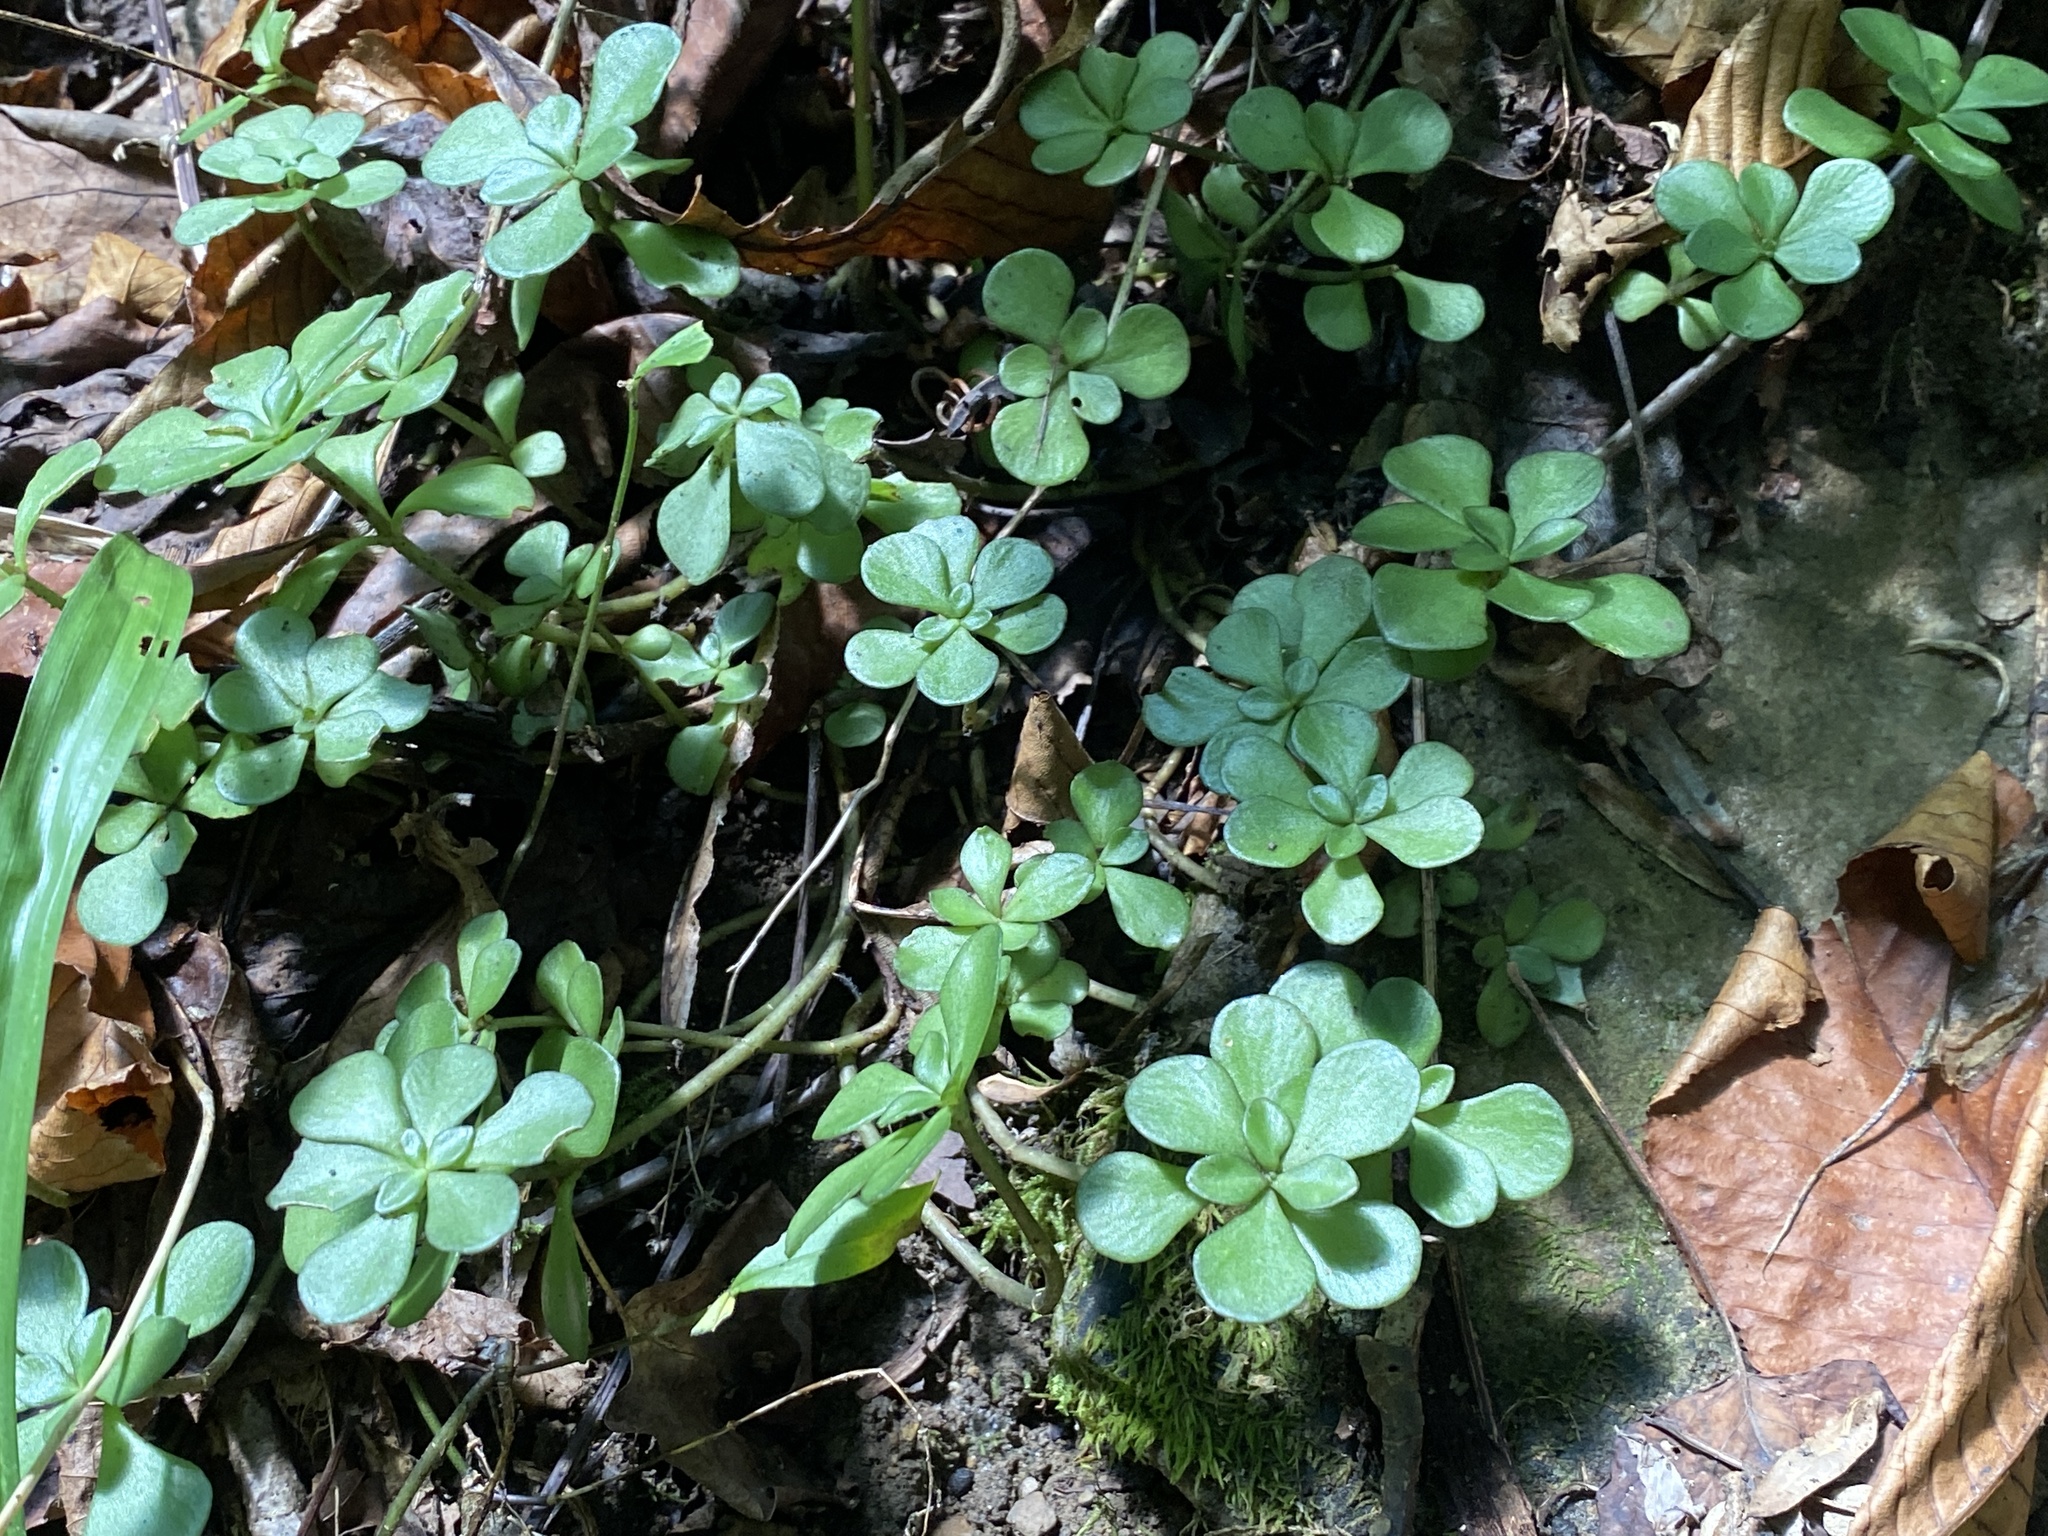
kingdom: Plantae
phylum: Tracheophyta
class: Magnoliopsida
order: Saxifragales
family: Crassulaceae
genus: Sedum
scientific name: Sedum ternatum
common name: Wild stonecrop
